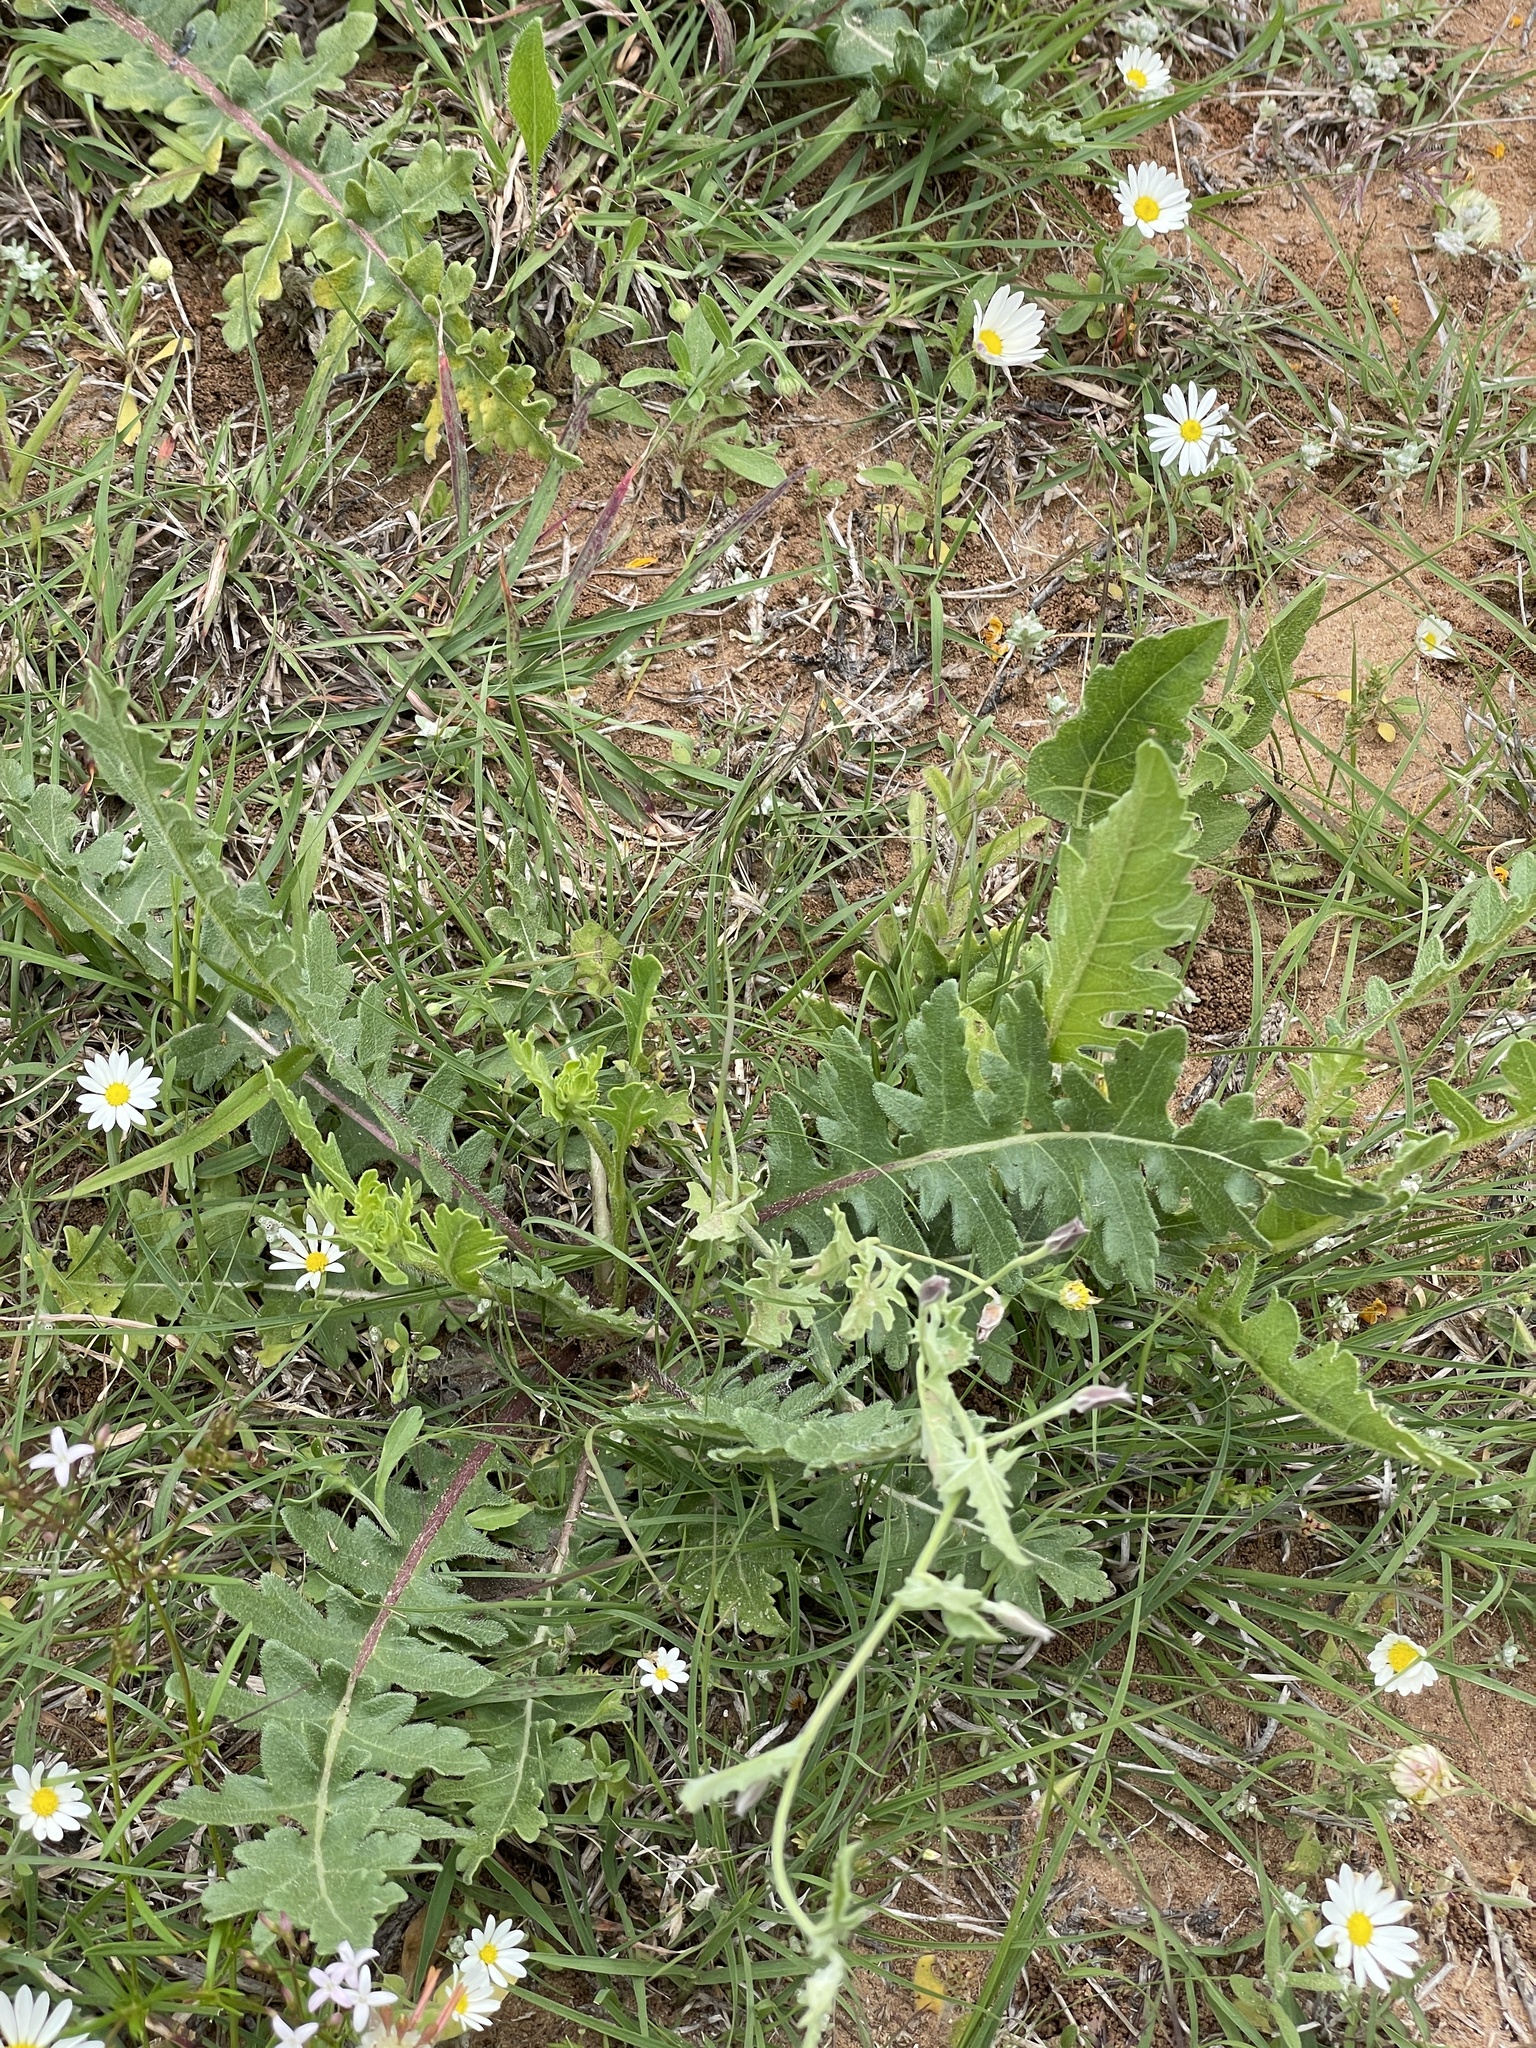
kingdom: Plantae
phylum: Tracheophyta
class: Magnoliopsida
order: Solanales
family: Convolvulaceae
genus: Convolvulus
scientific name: Convolvulus equitans
